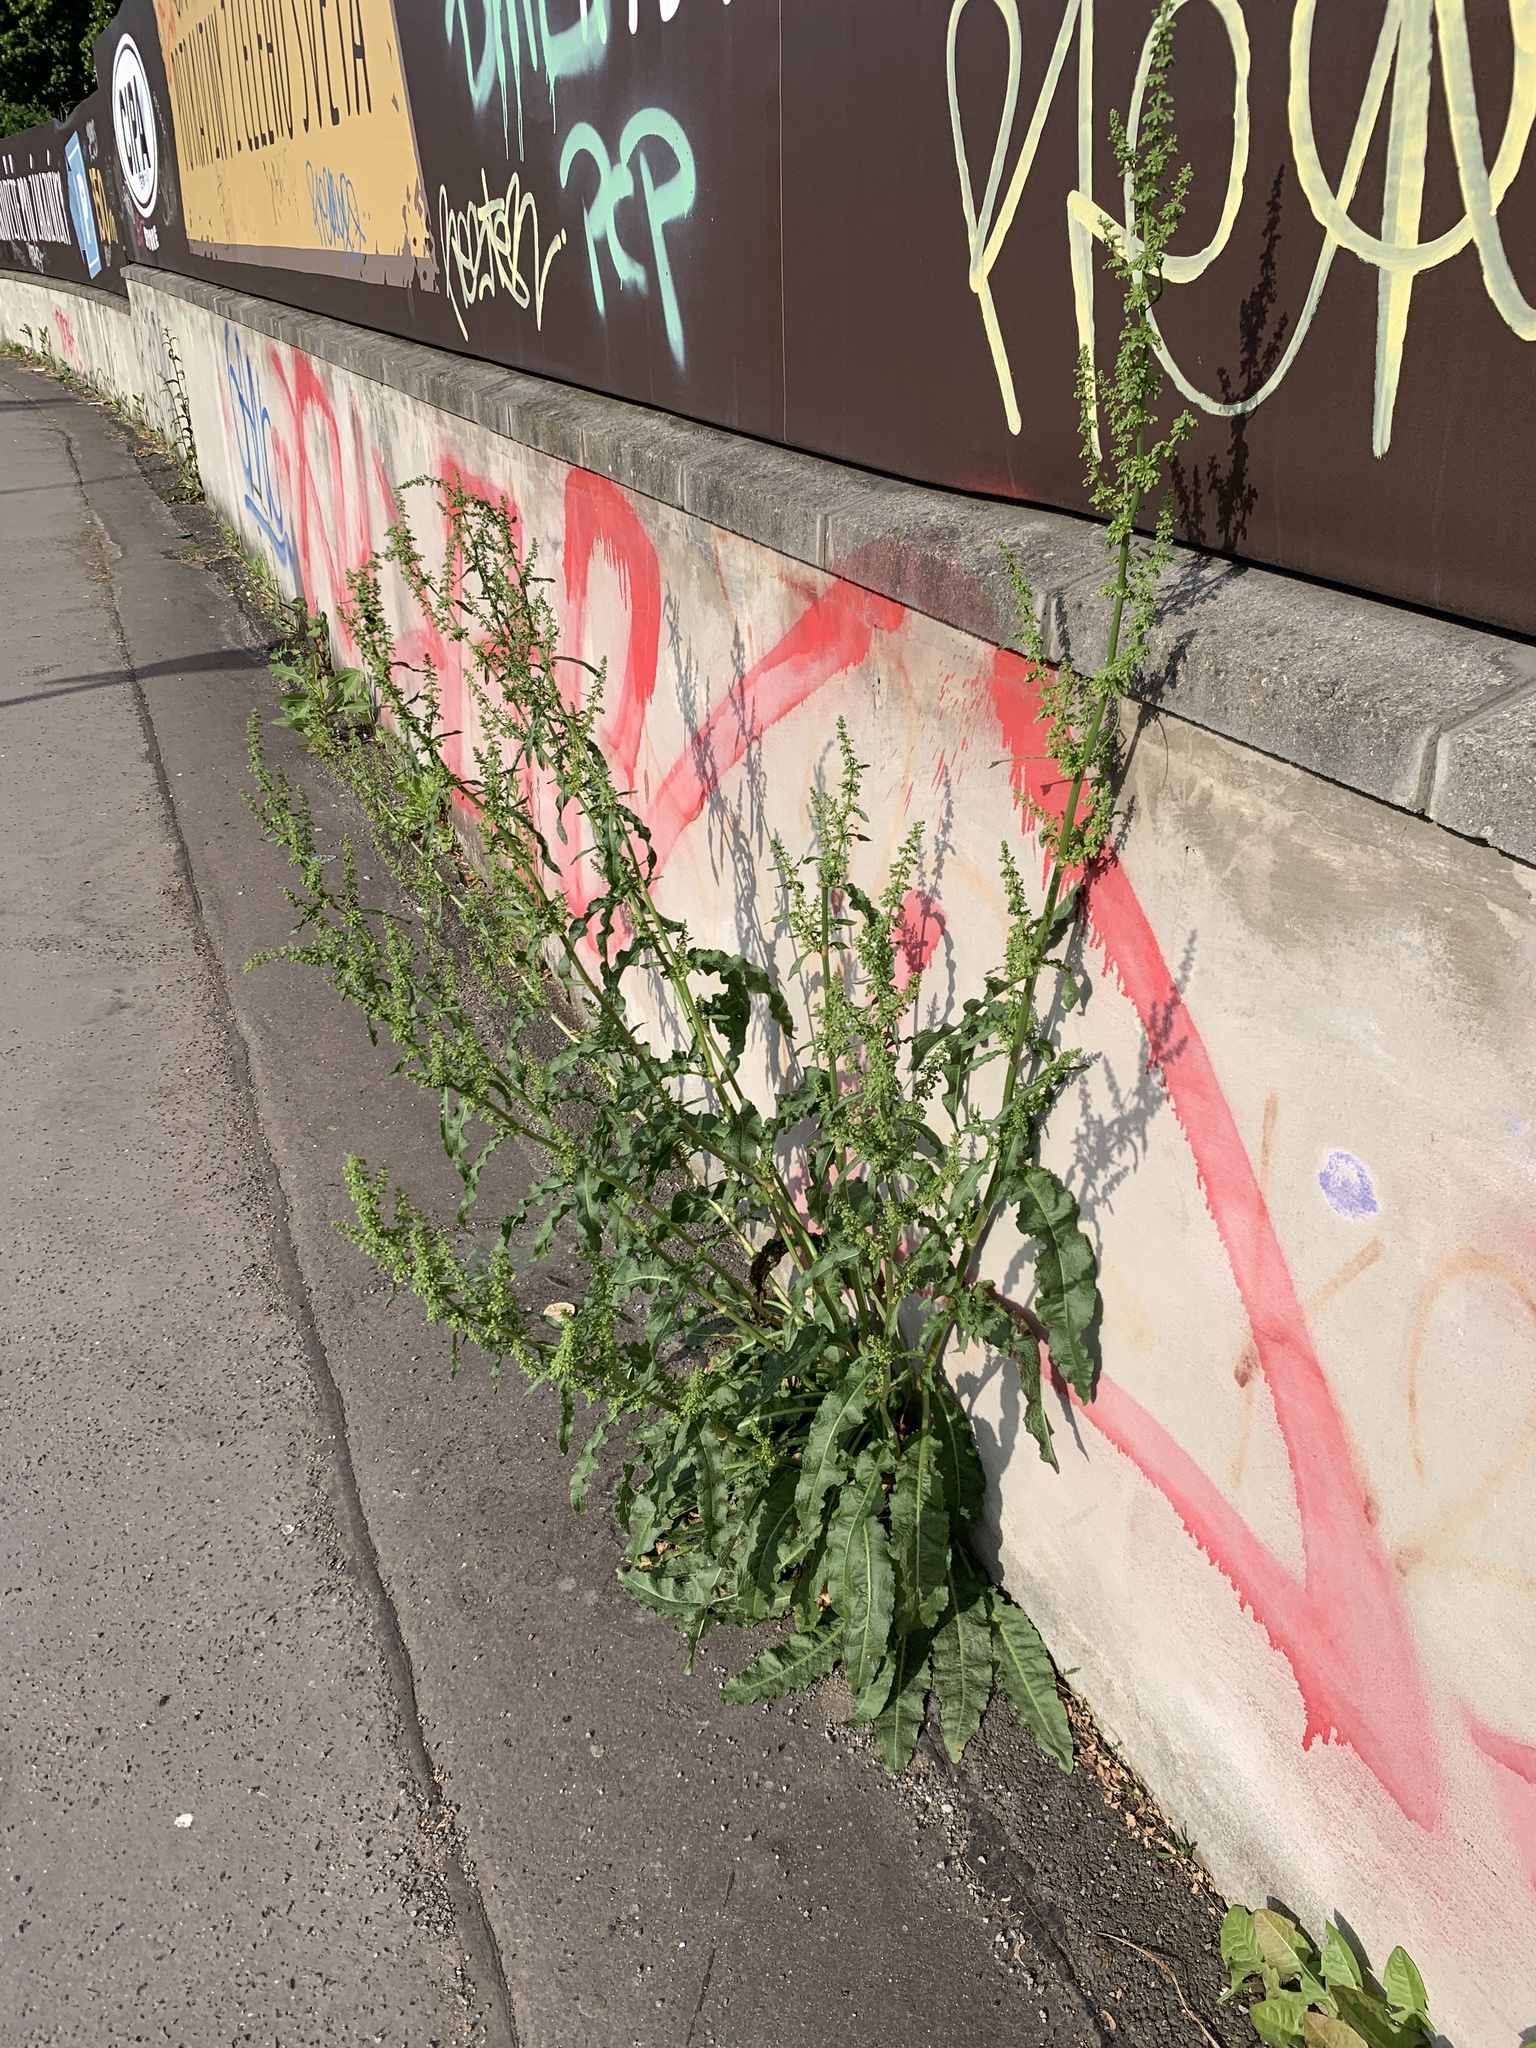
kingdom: Plantae
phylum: Tracheophyta
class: Magnoliopsida
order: Caryophyllales
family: Polygonaceae
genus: Rumex
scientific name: Rumex crispus
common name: Curled dock
